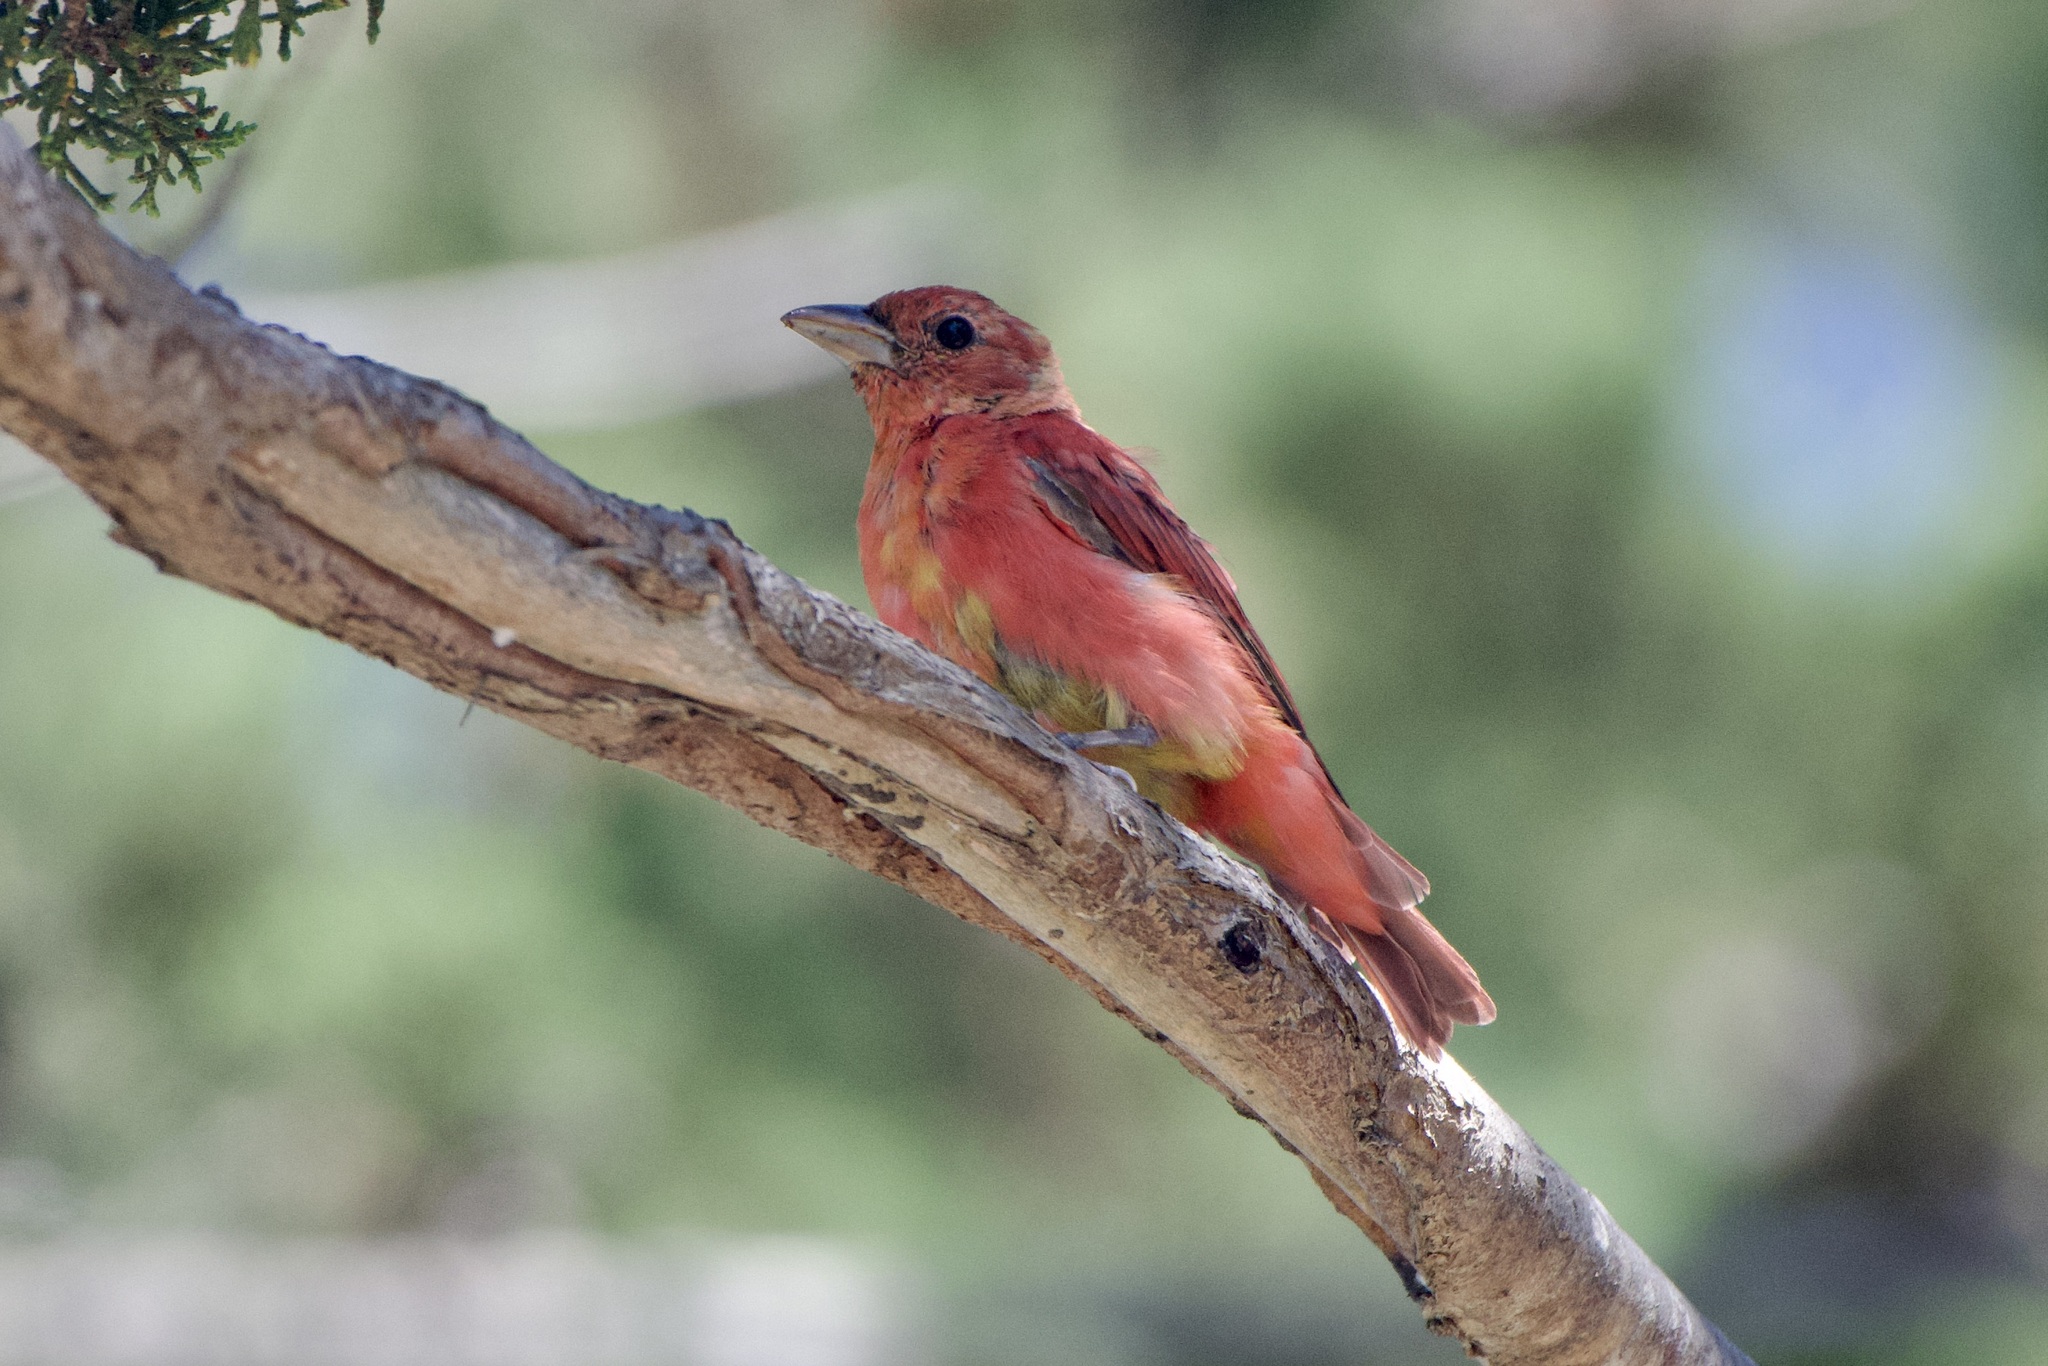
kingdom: Animalia
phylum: Chordata
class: Aves
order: Passeriformes
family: Cardinalidae
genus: Piranga
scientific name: Piranga rubra
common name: Summer tanager
